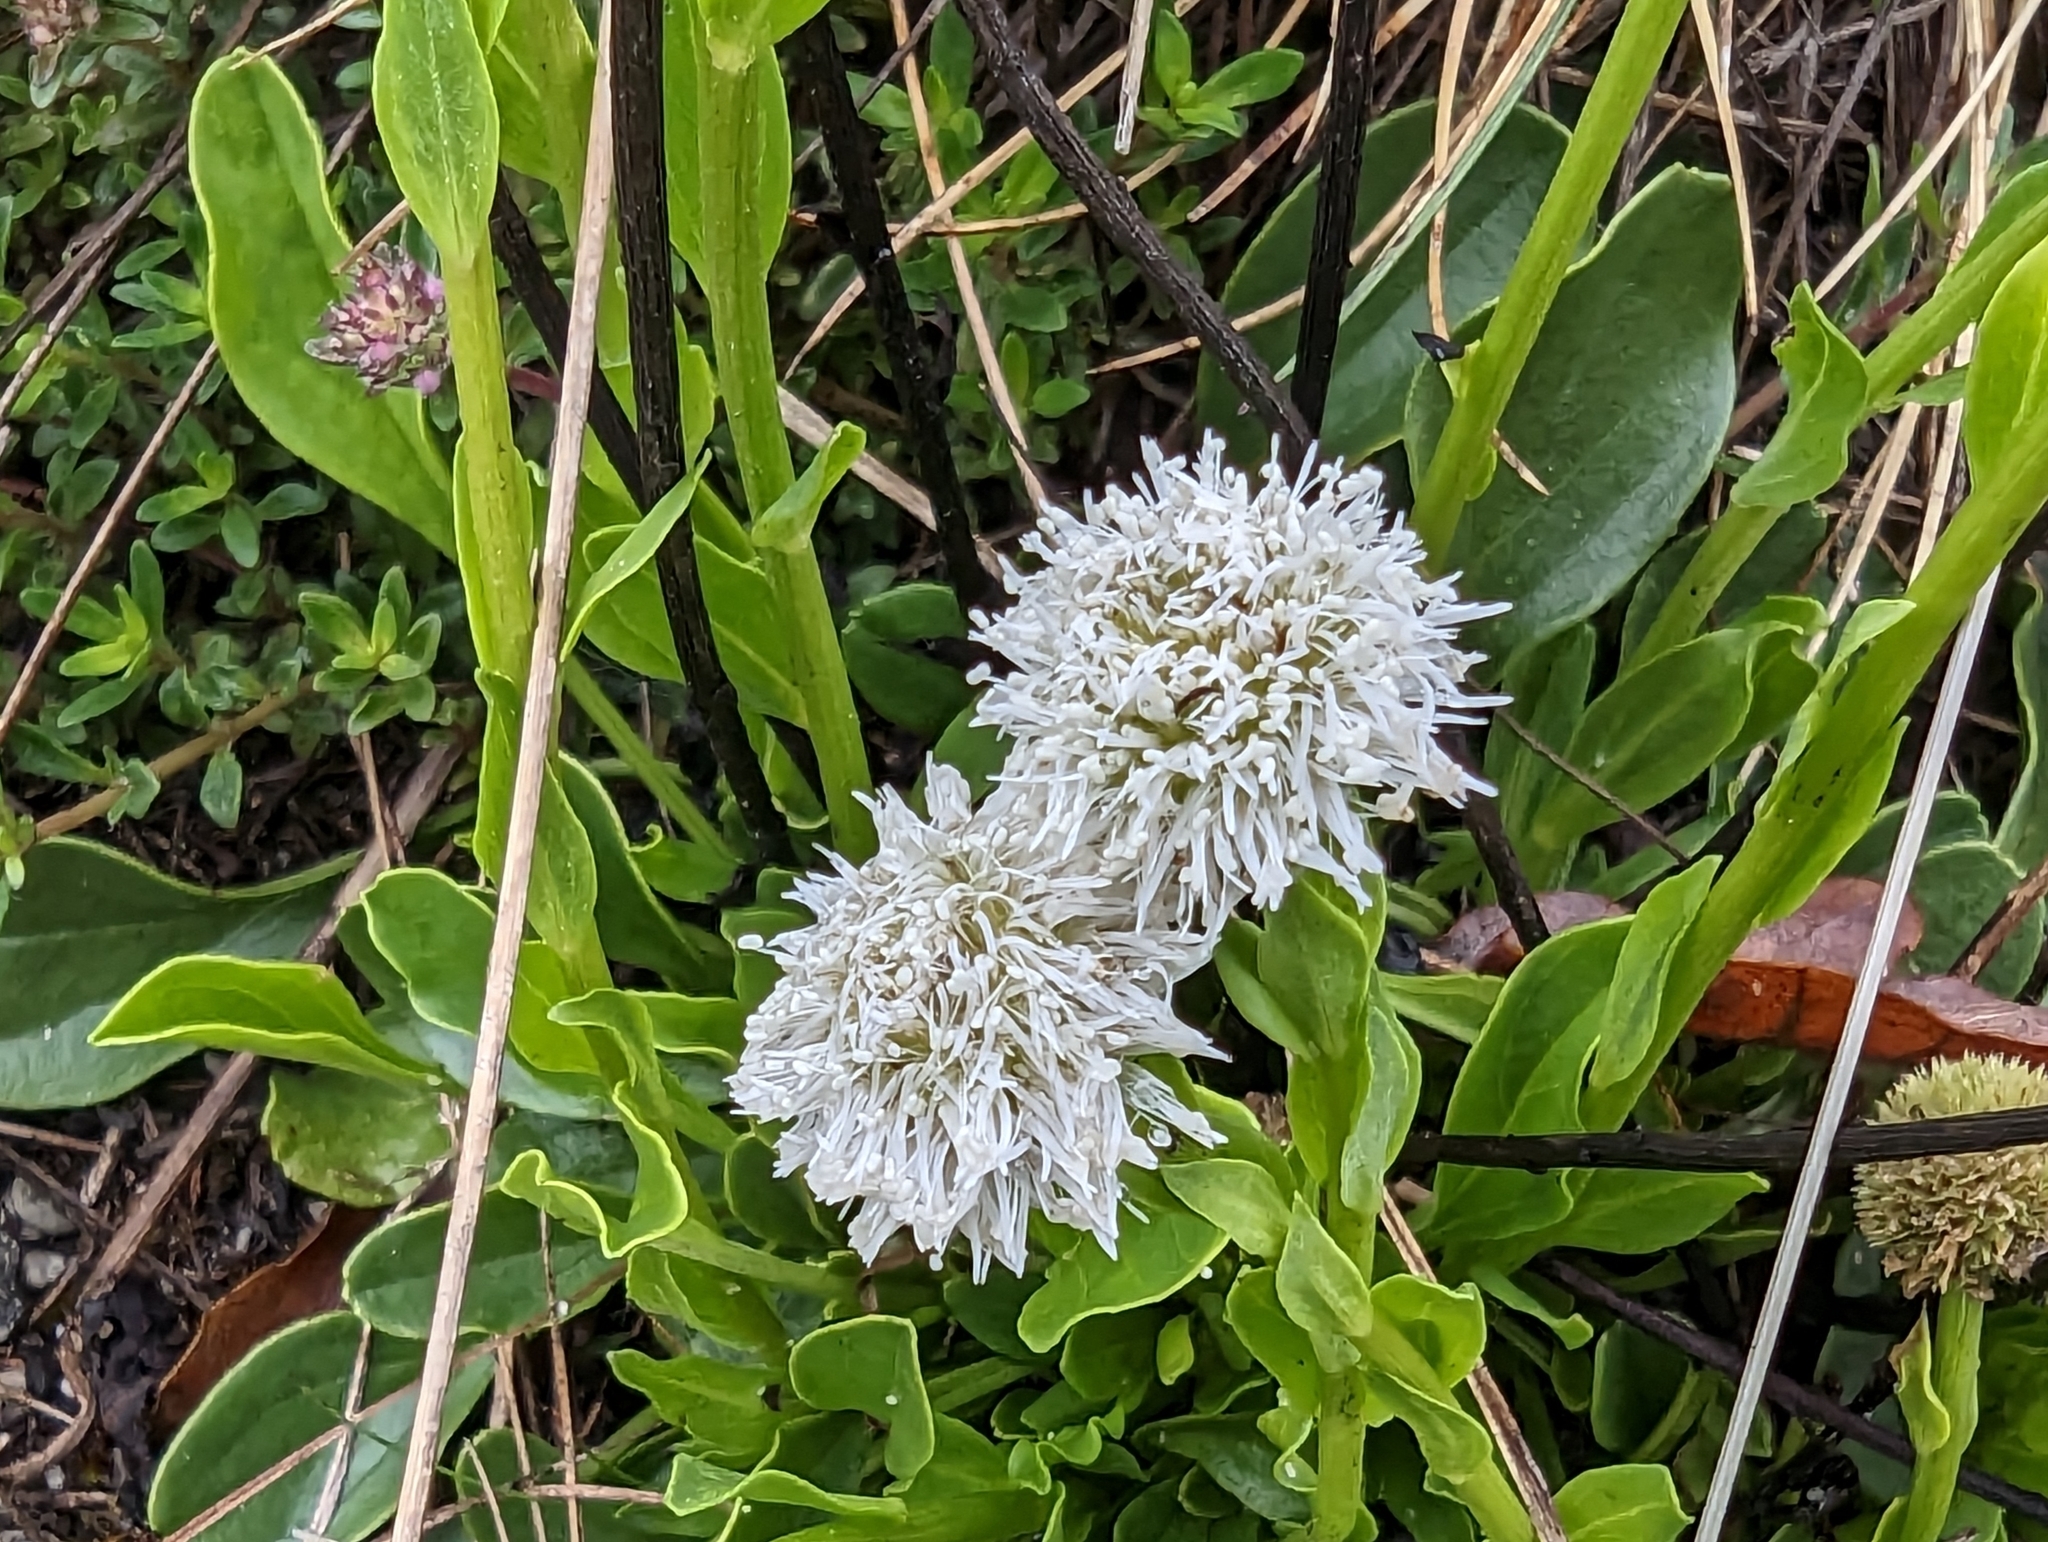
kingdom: Plantae
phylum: Tracheophyta
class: Magnoliopsida
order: Lamiales
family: Plantaginaceae
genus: Globularia
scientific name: Globularia bisnagarica
